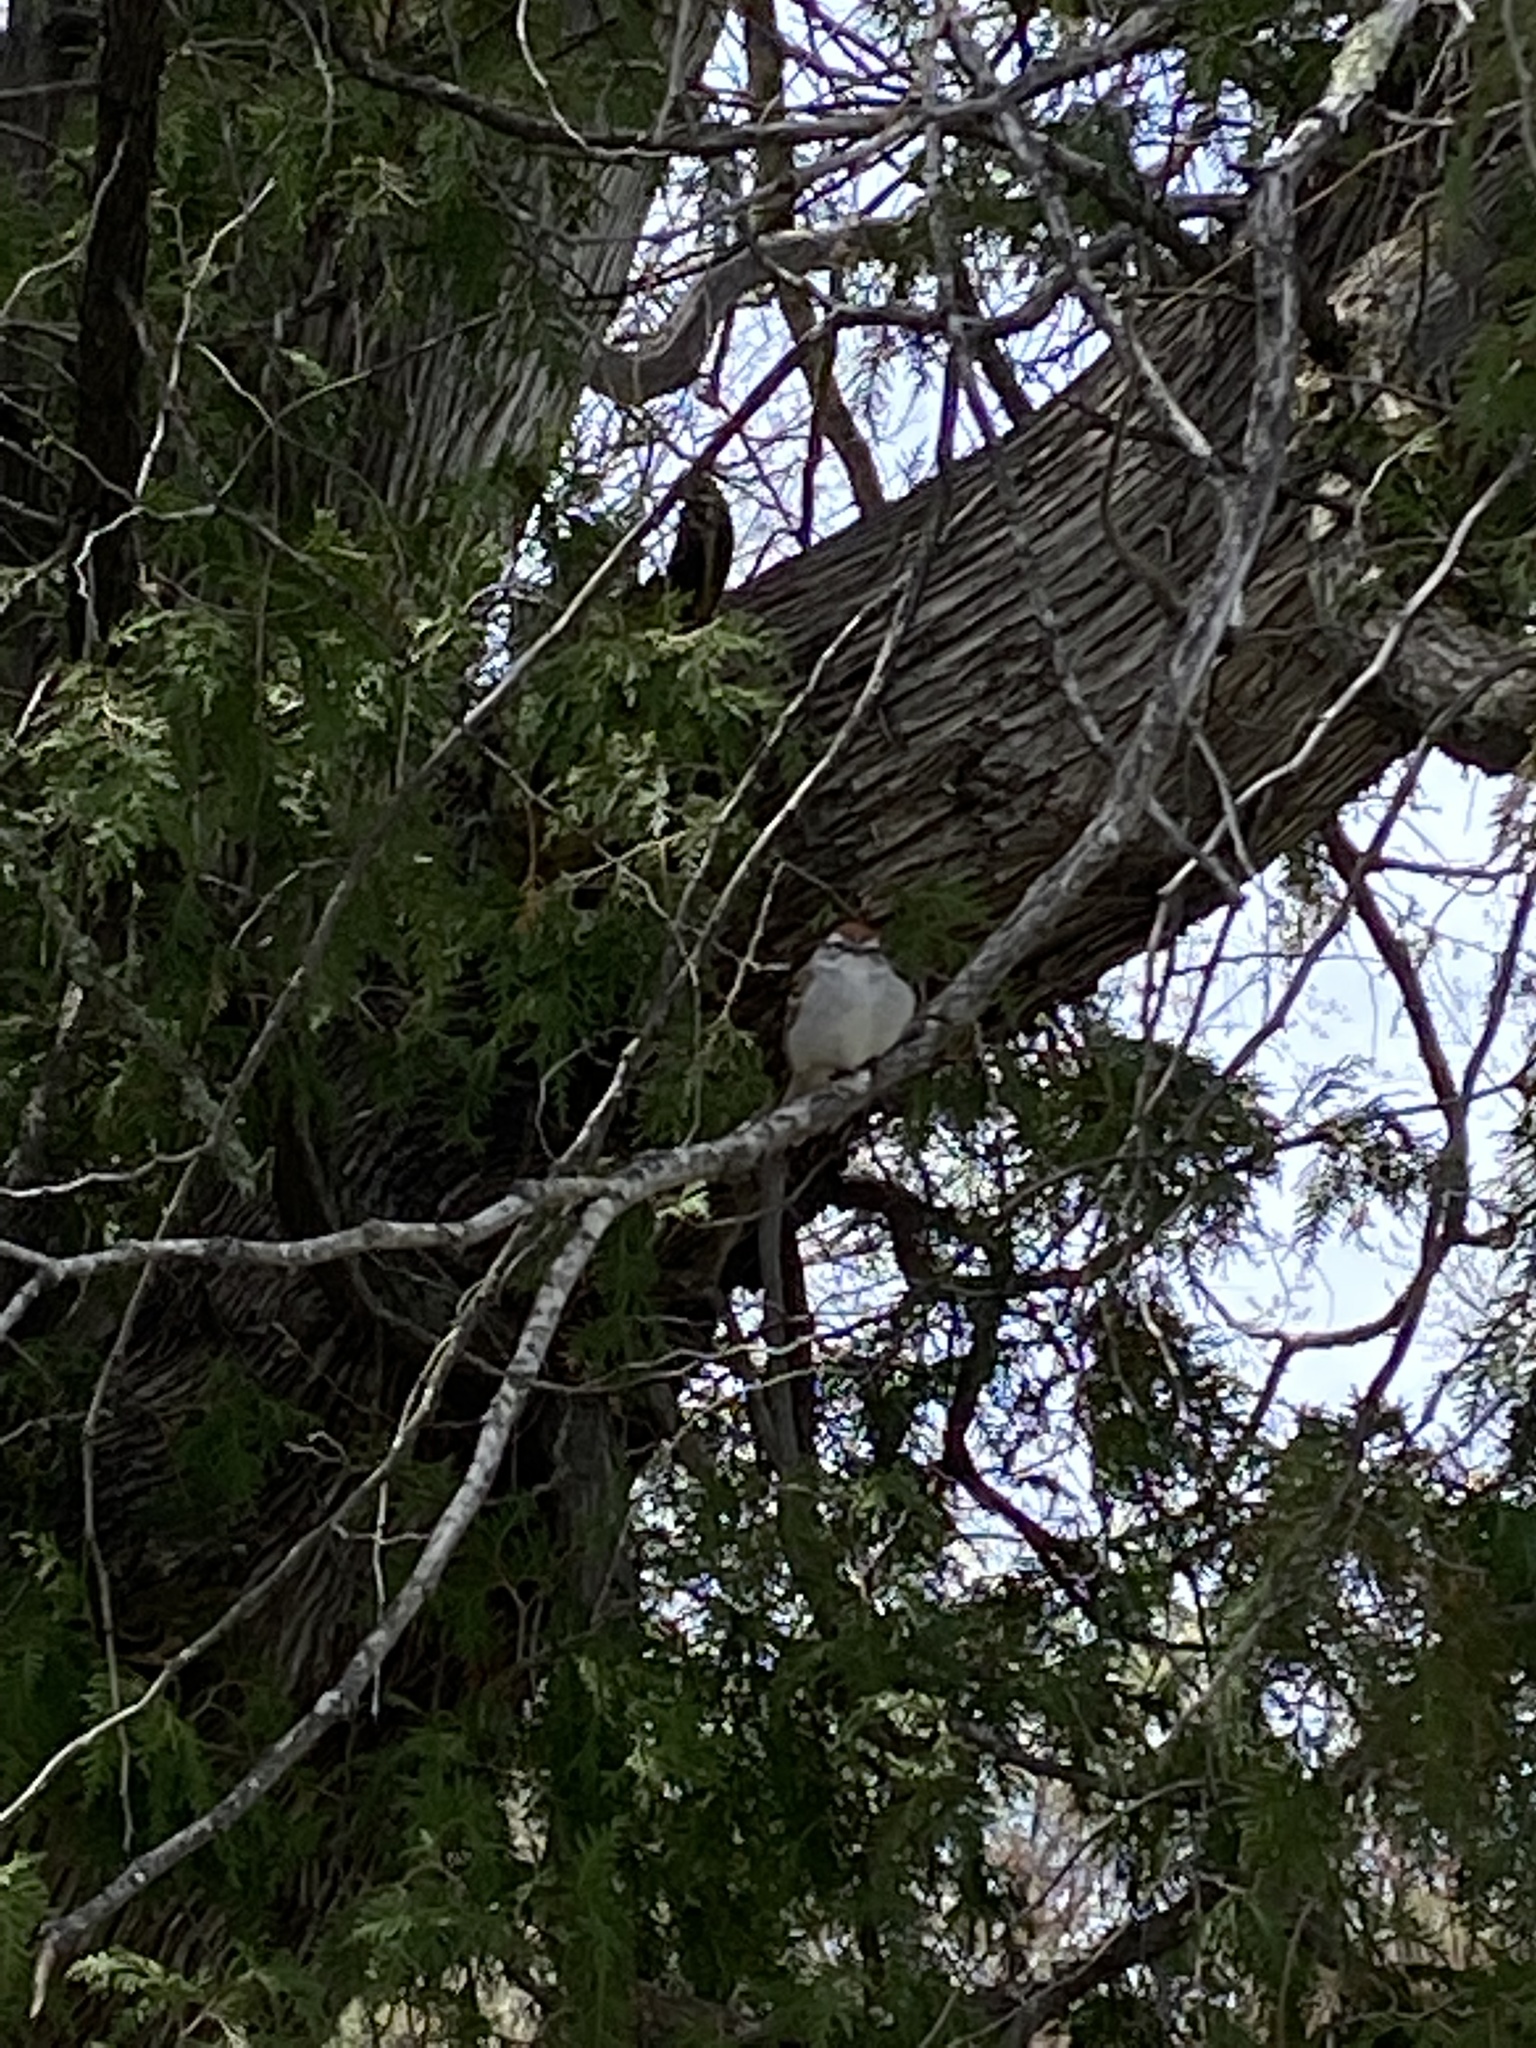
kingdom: Animalia
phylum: Chordata
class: Aves
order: Passeriformes
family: Passerellidae
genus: Spizella
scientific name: Spizella passerina
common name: Chipping sparrow
